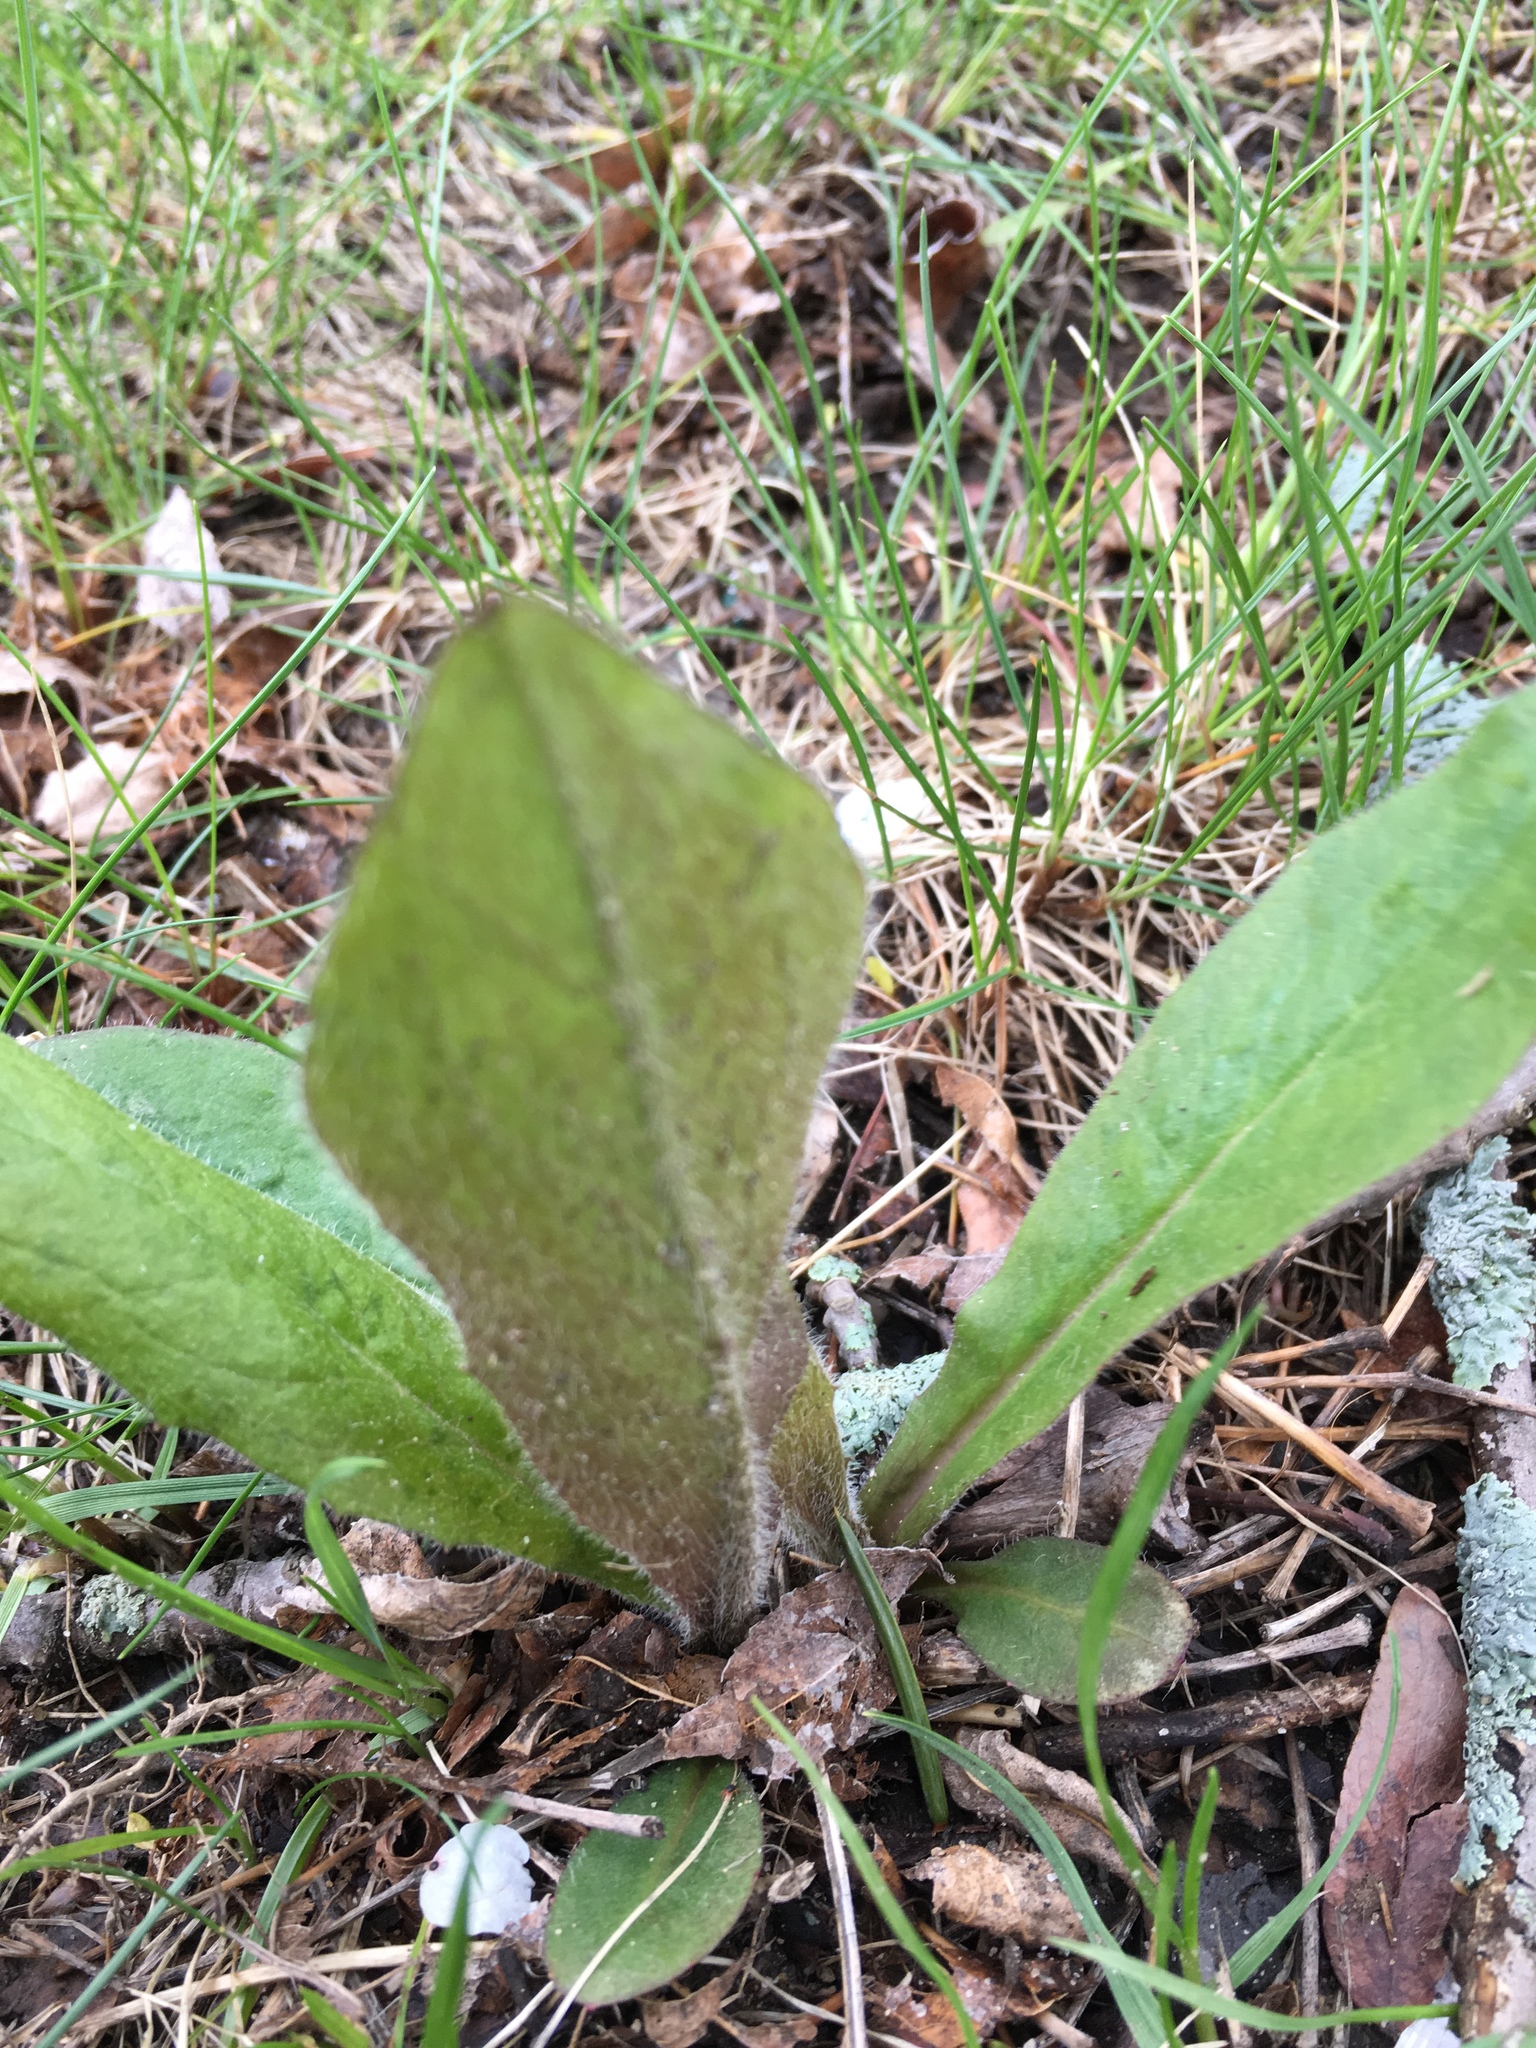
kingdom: Plantae
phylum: Tracheophyta
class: Magnoliopsida
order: Lamiales
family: Scrophulariaceae
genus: Verbascum
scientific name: Verbascum thapsus
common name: Common mullein
